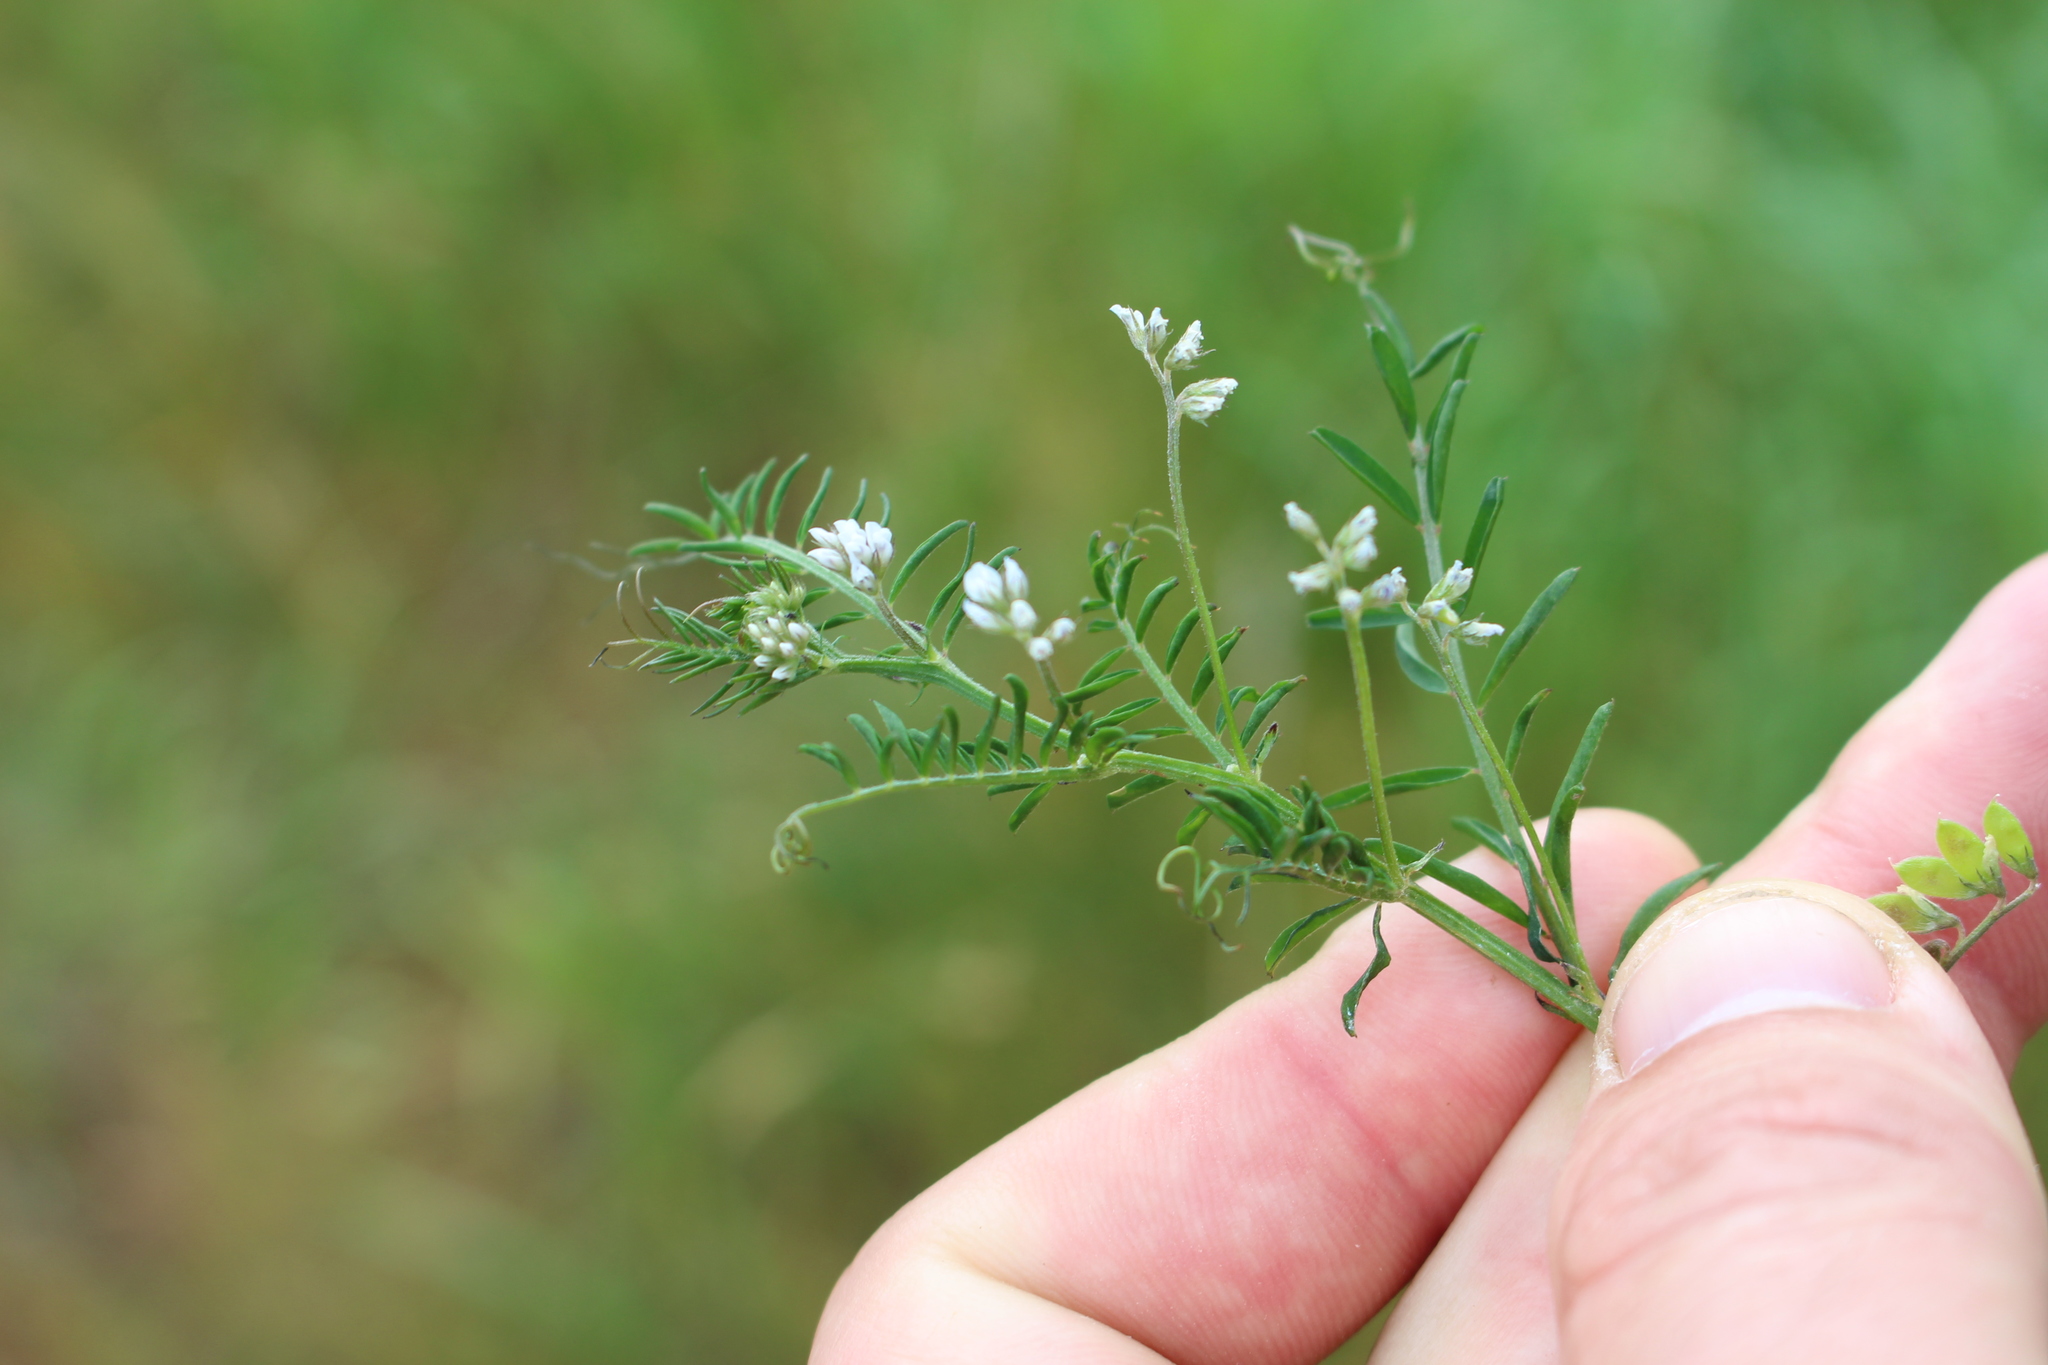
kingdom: Plantae
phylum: Tracheophyta
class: Magnoliopsida
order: Fabales
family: Fabaceae
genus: Vicia
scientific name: Vicia hirsuta
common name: Tiny vetch
